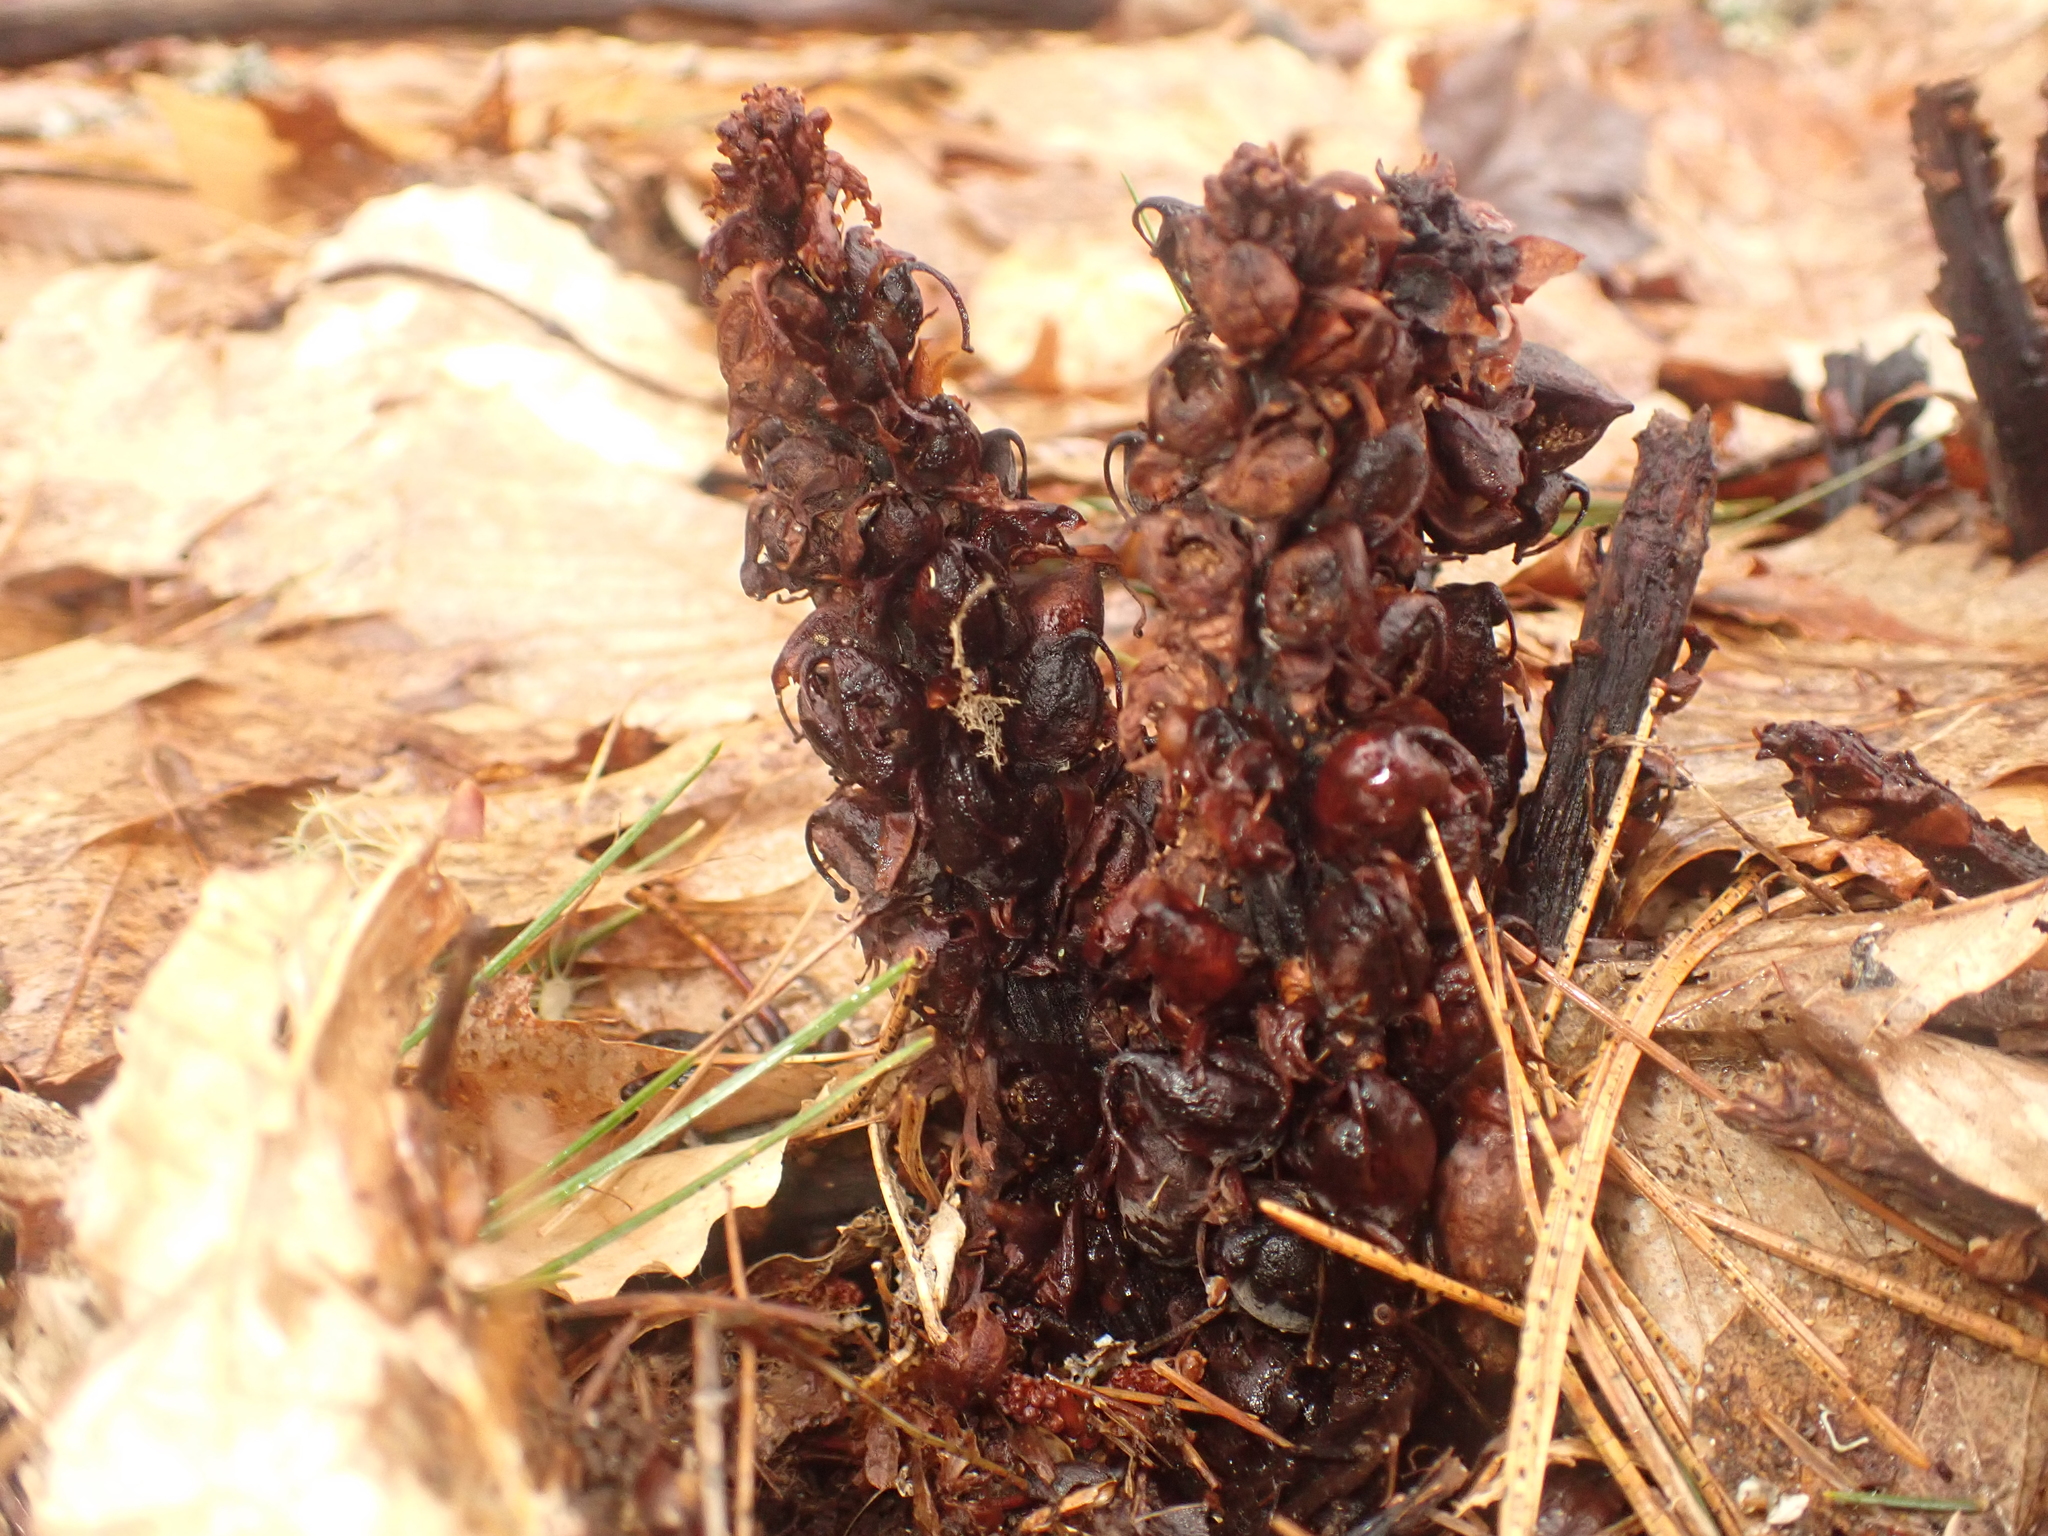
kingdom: Plantae
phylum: Tracheophyta
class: Magnoliopsida
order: Lamiales
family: Orobanchaceae
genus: Conopholis
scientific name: Conopholis americana
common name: American cancer-root
